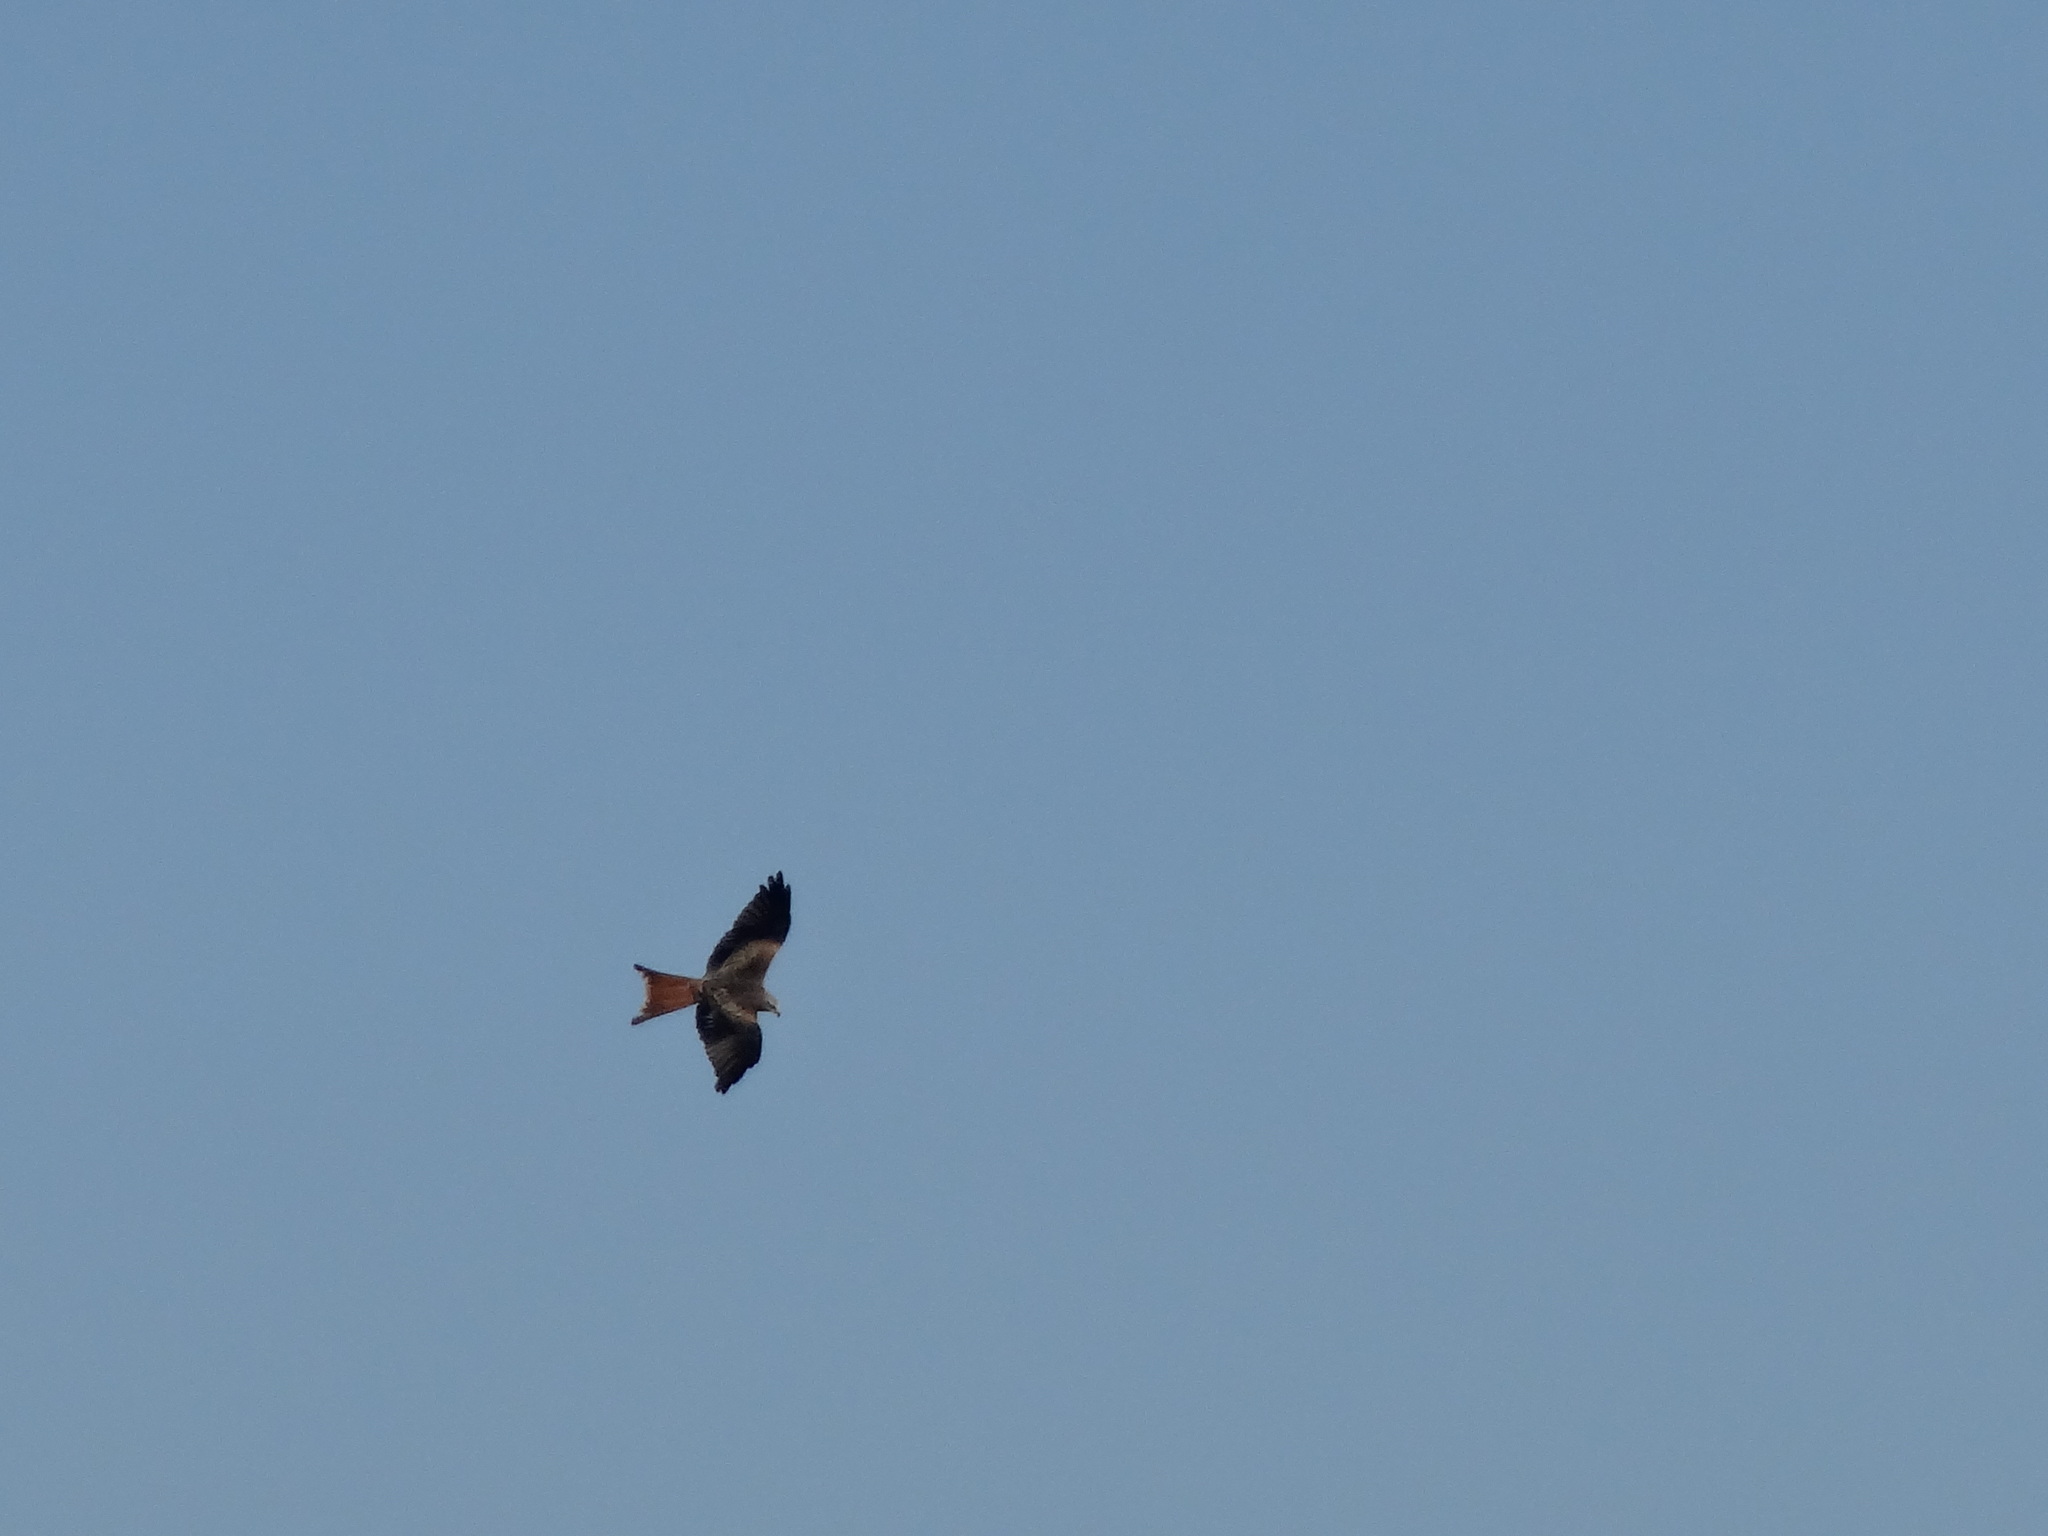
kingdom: Animalia
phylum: Chordata
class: Aves
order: Accipitriformes
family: Accipitridae
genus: Milvus
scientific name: Milvus milvus
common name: Red kite
